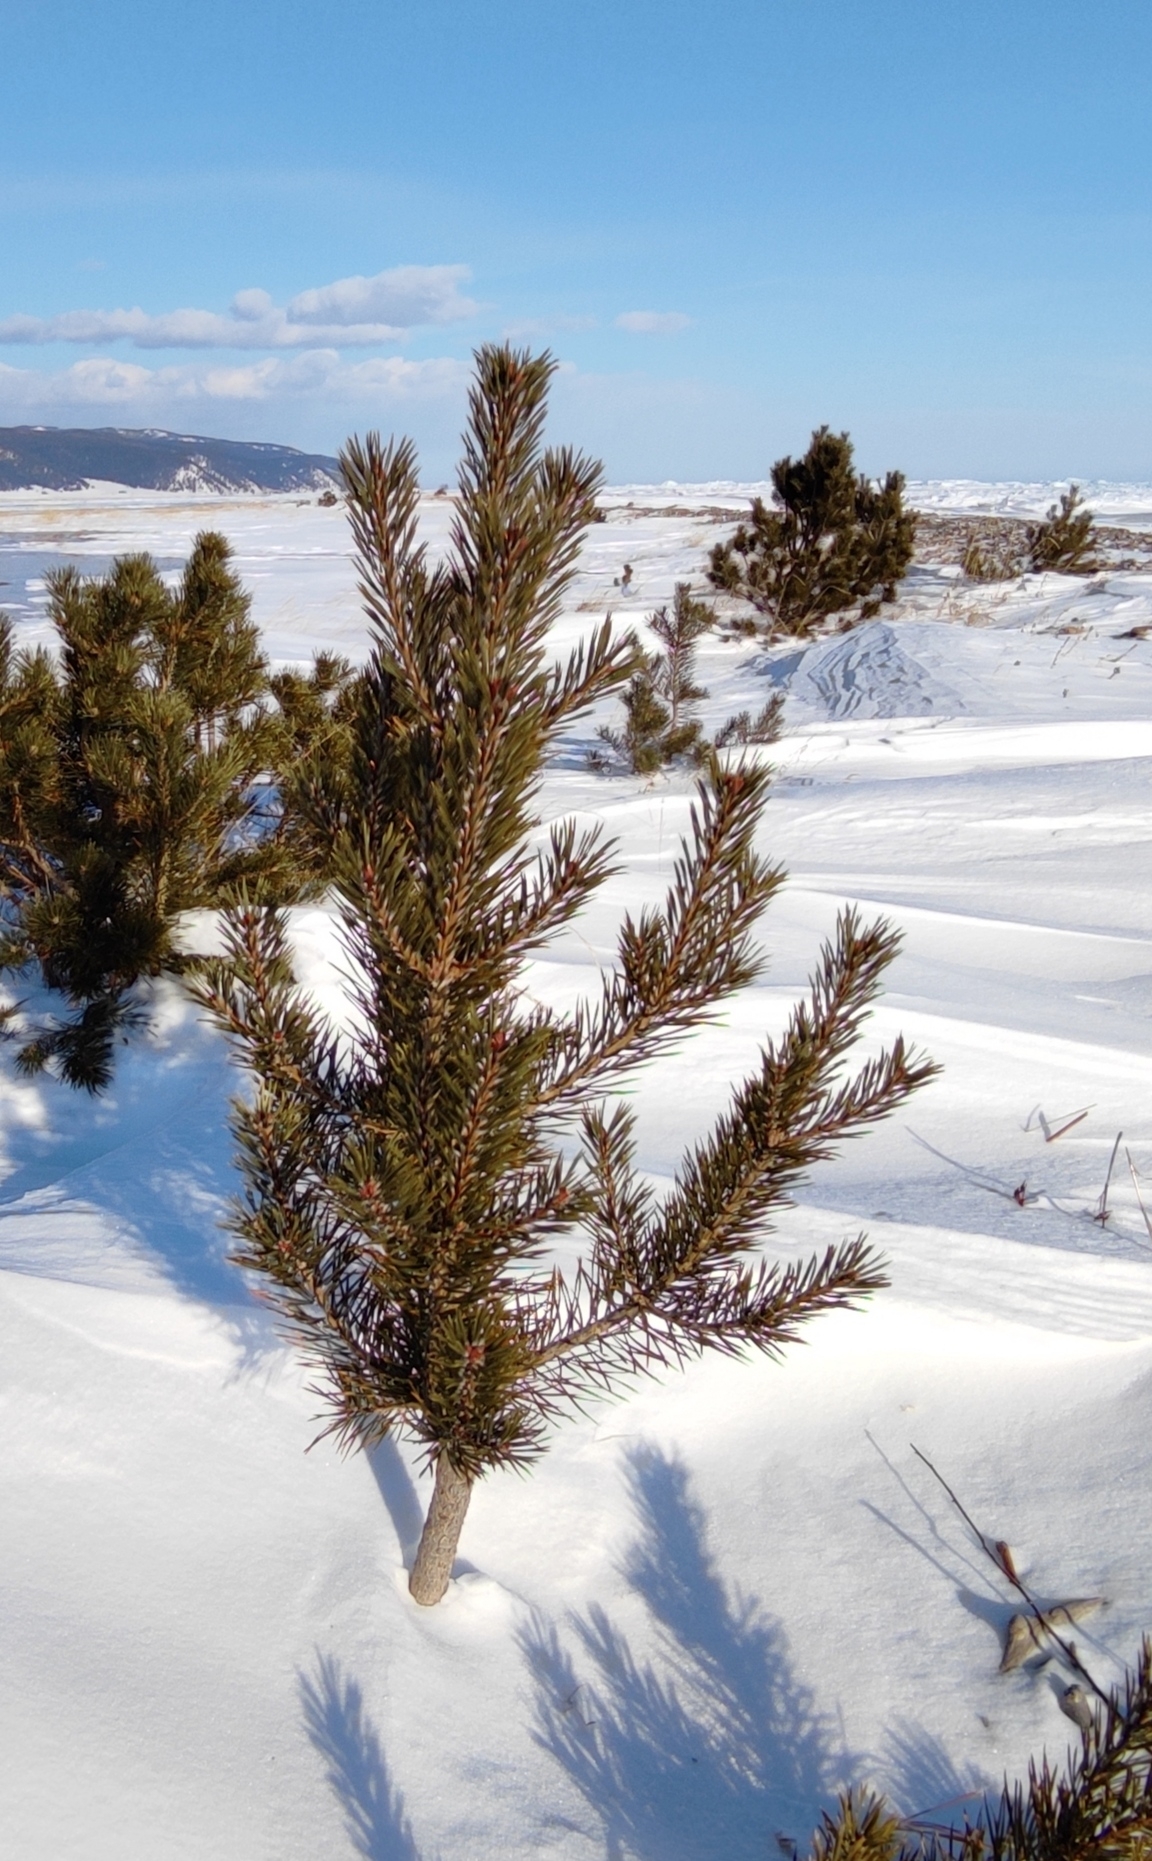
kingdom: Plantae
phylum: Tracheophyta
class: Pinopsida
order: Pinales
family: Pinaceae
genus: Pinus
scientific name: Pinus sylvestris
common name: Scots pine
